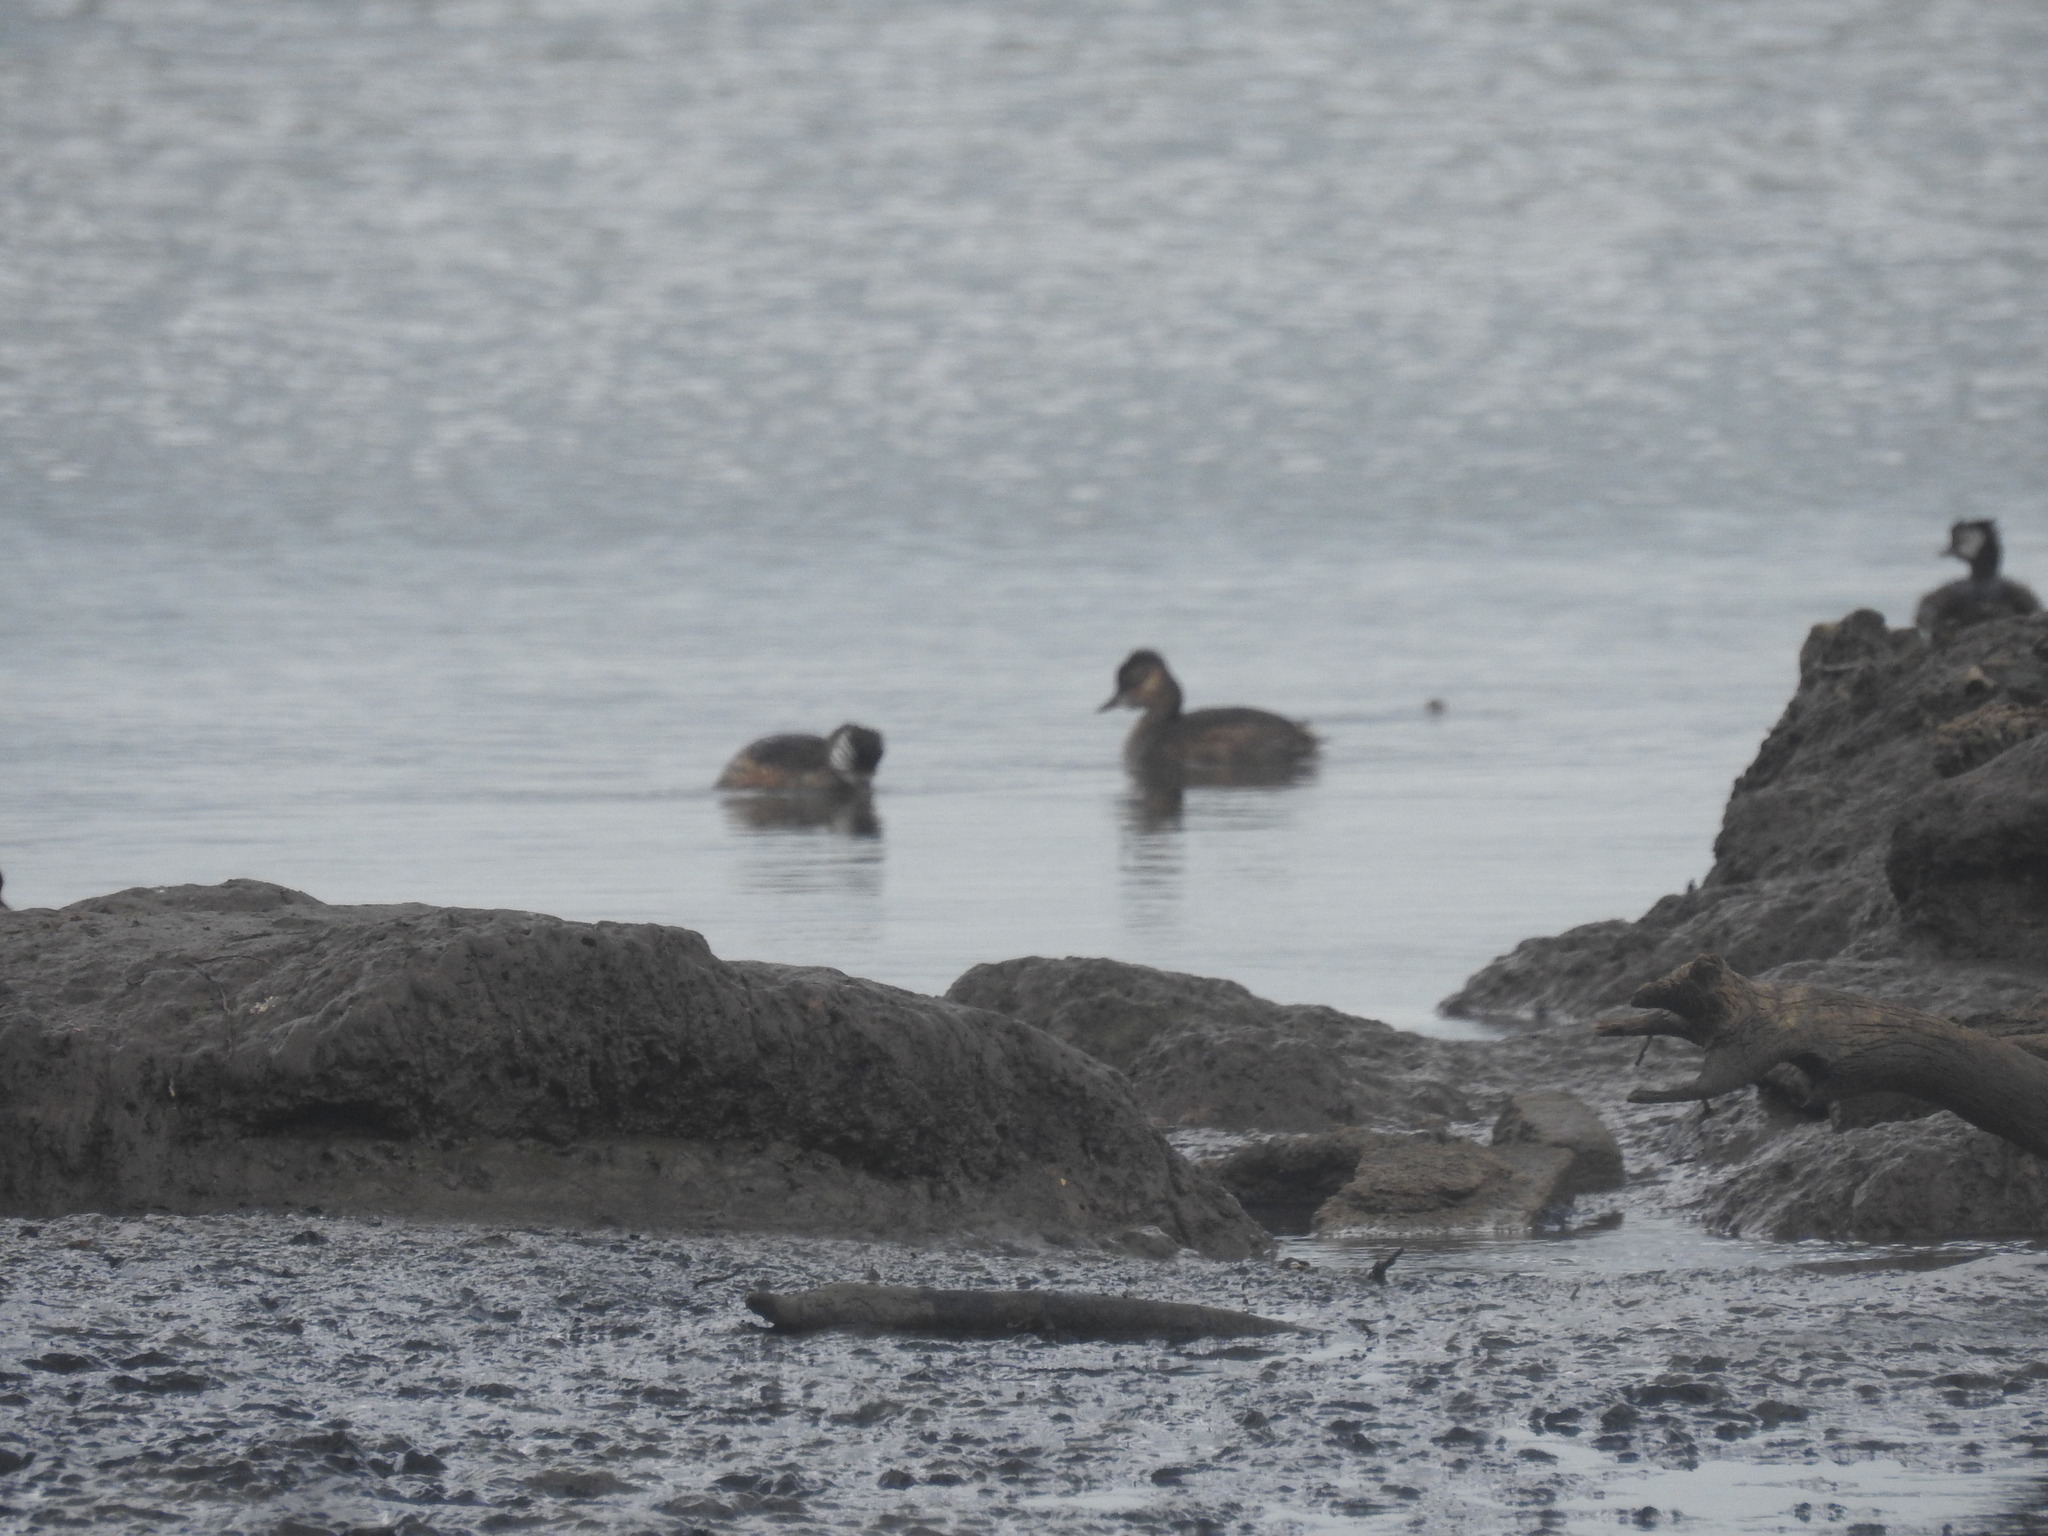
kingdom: Animalia
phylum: Chordata
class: Aves
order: Podicipediformes
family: Podicipedidae
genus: Rollandia
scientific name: Rollandia rolland
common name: White-tufted grebe
